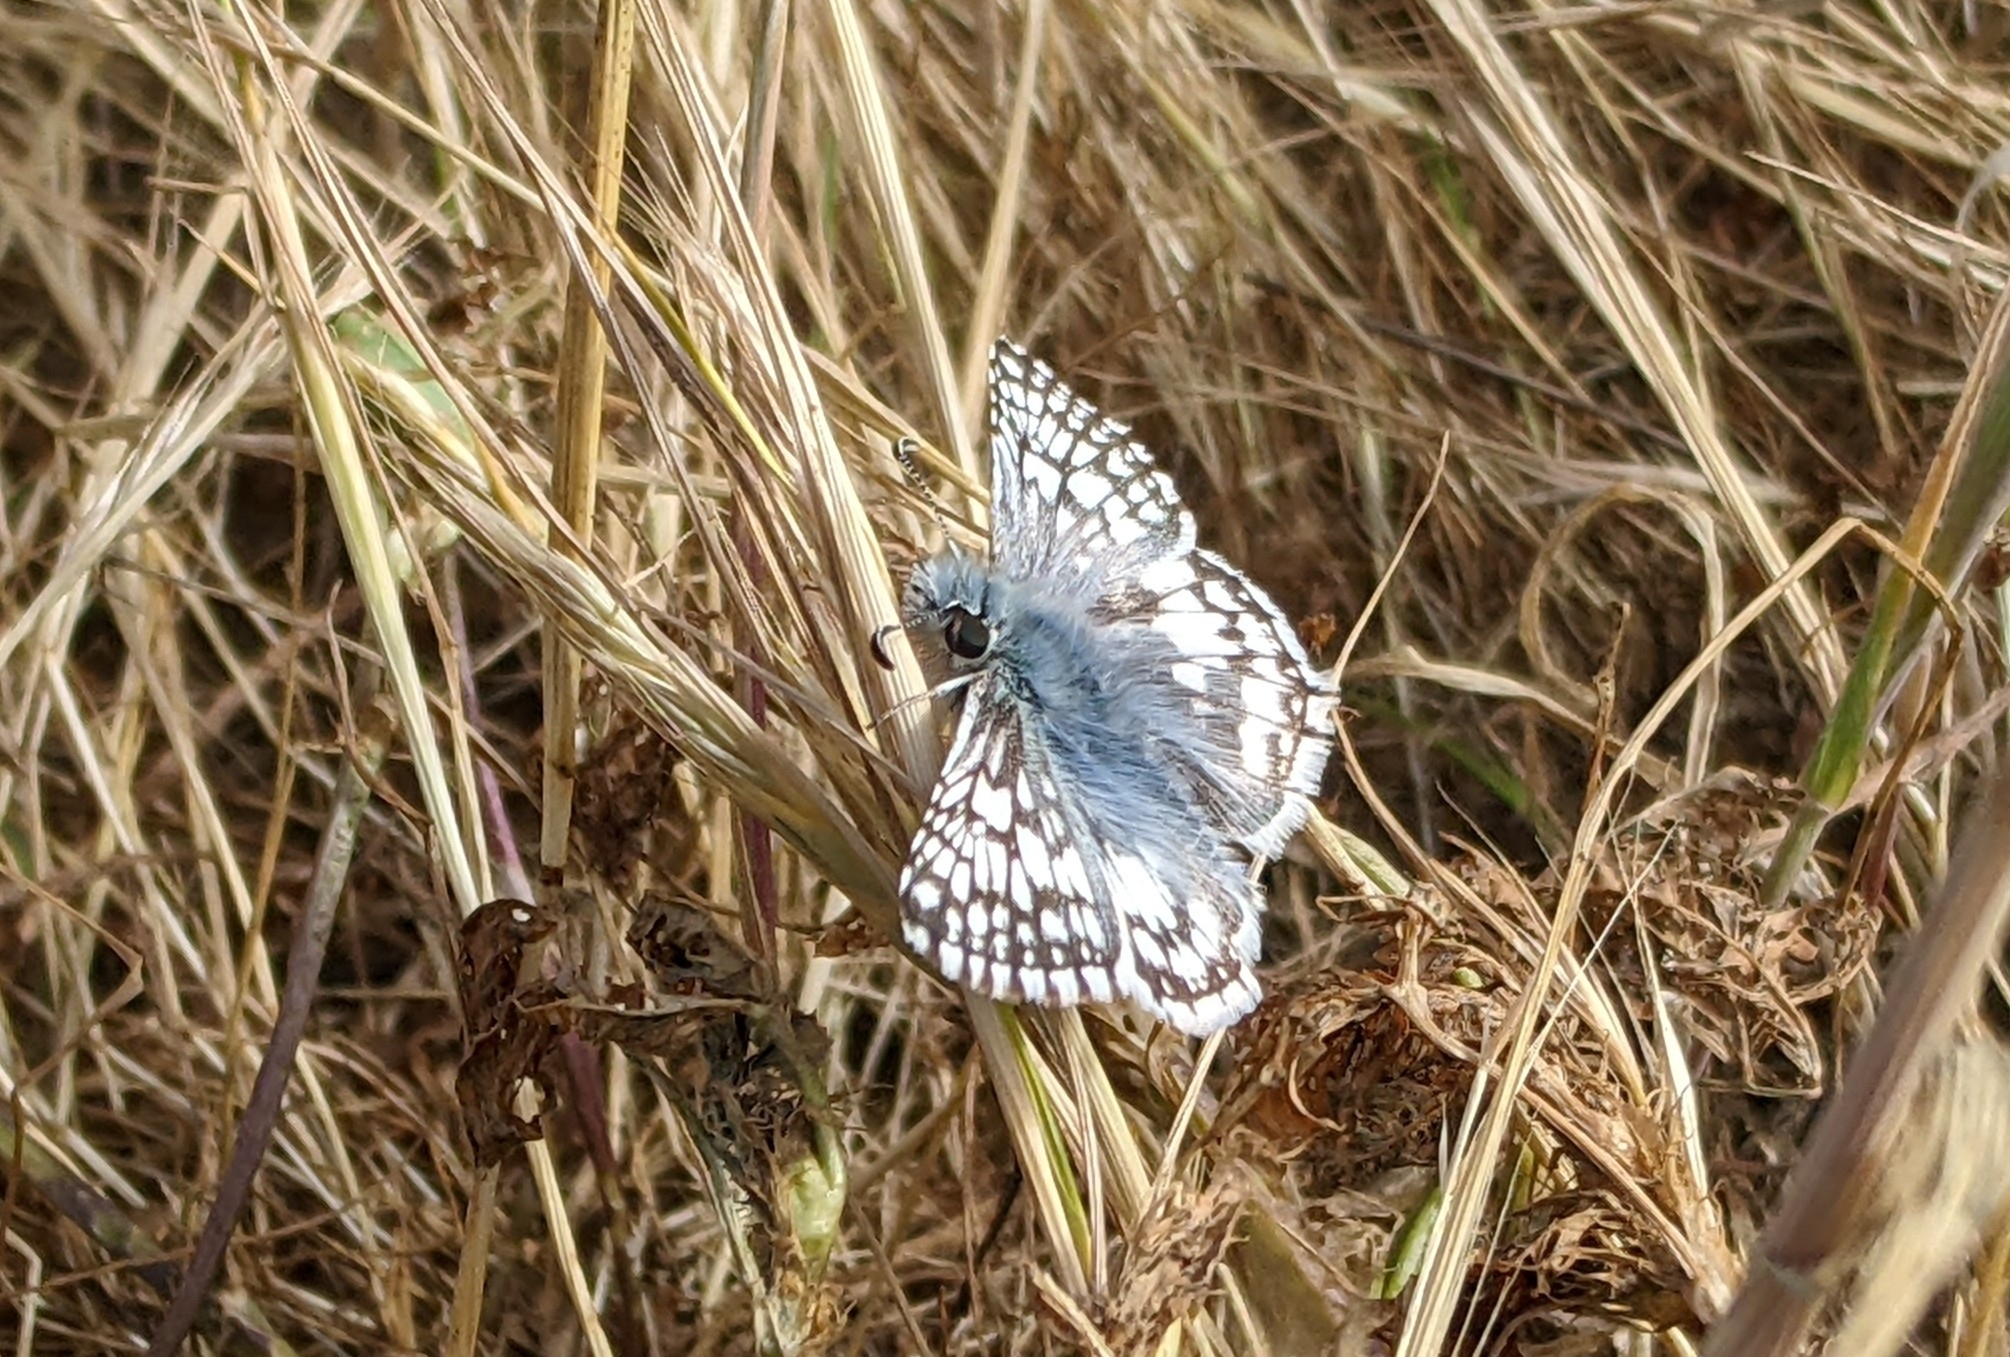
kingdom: Animalia
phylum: Arthropoda
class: Insecta
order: Lepidoptera
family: Hesperiidae
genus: Burnsius
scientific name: Burnsius communis
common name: Common checkered-skipper
